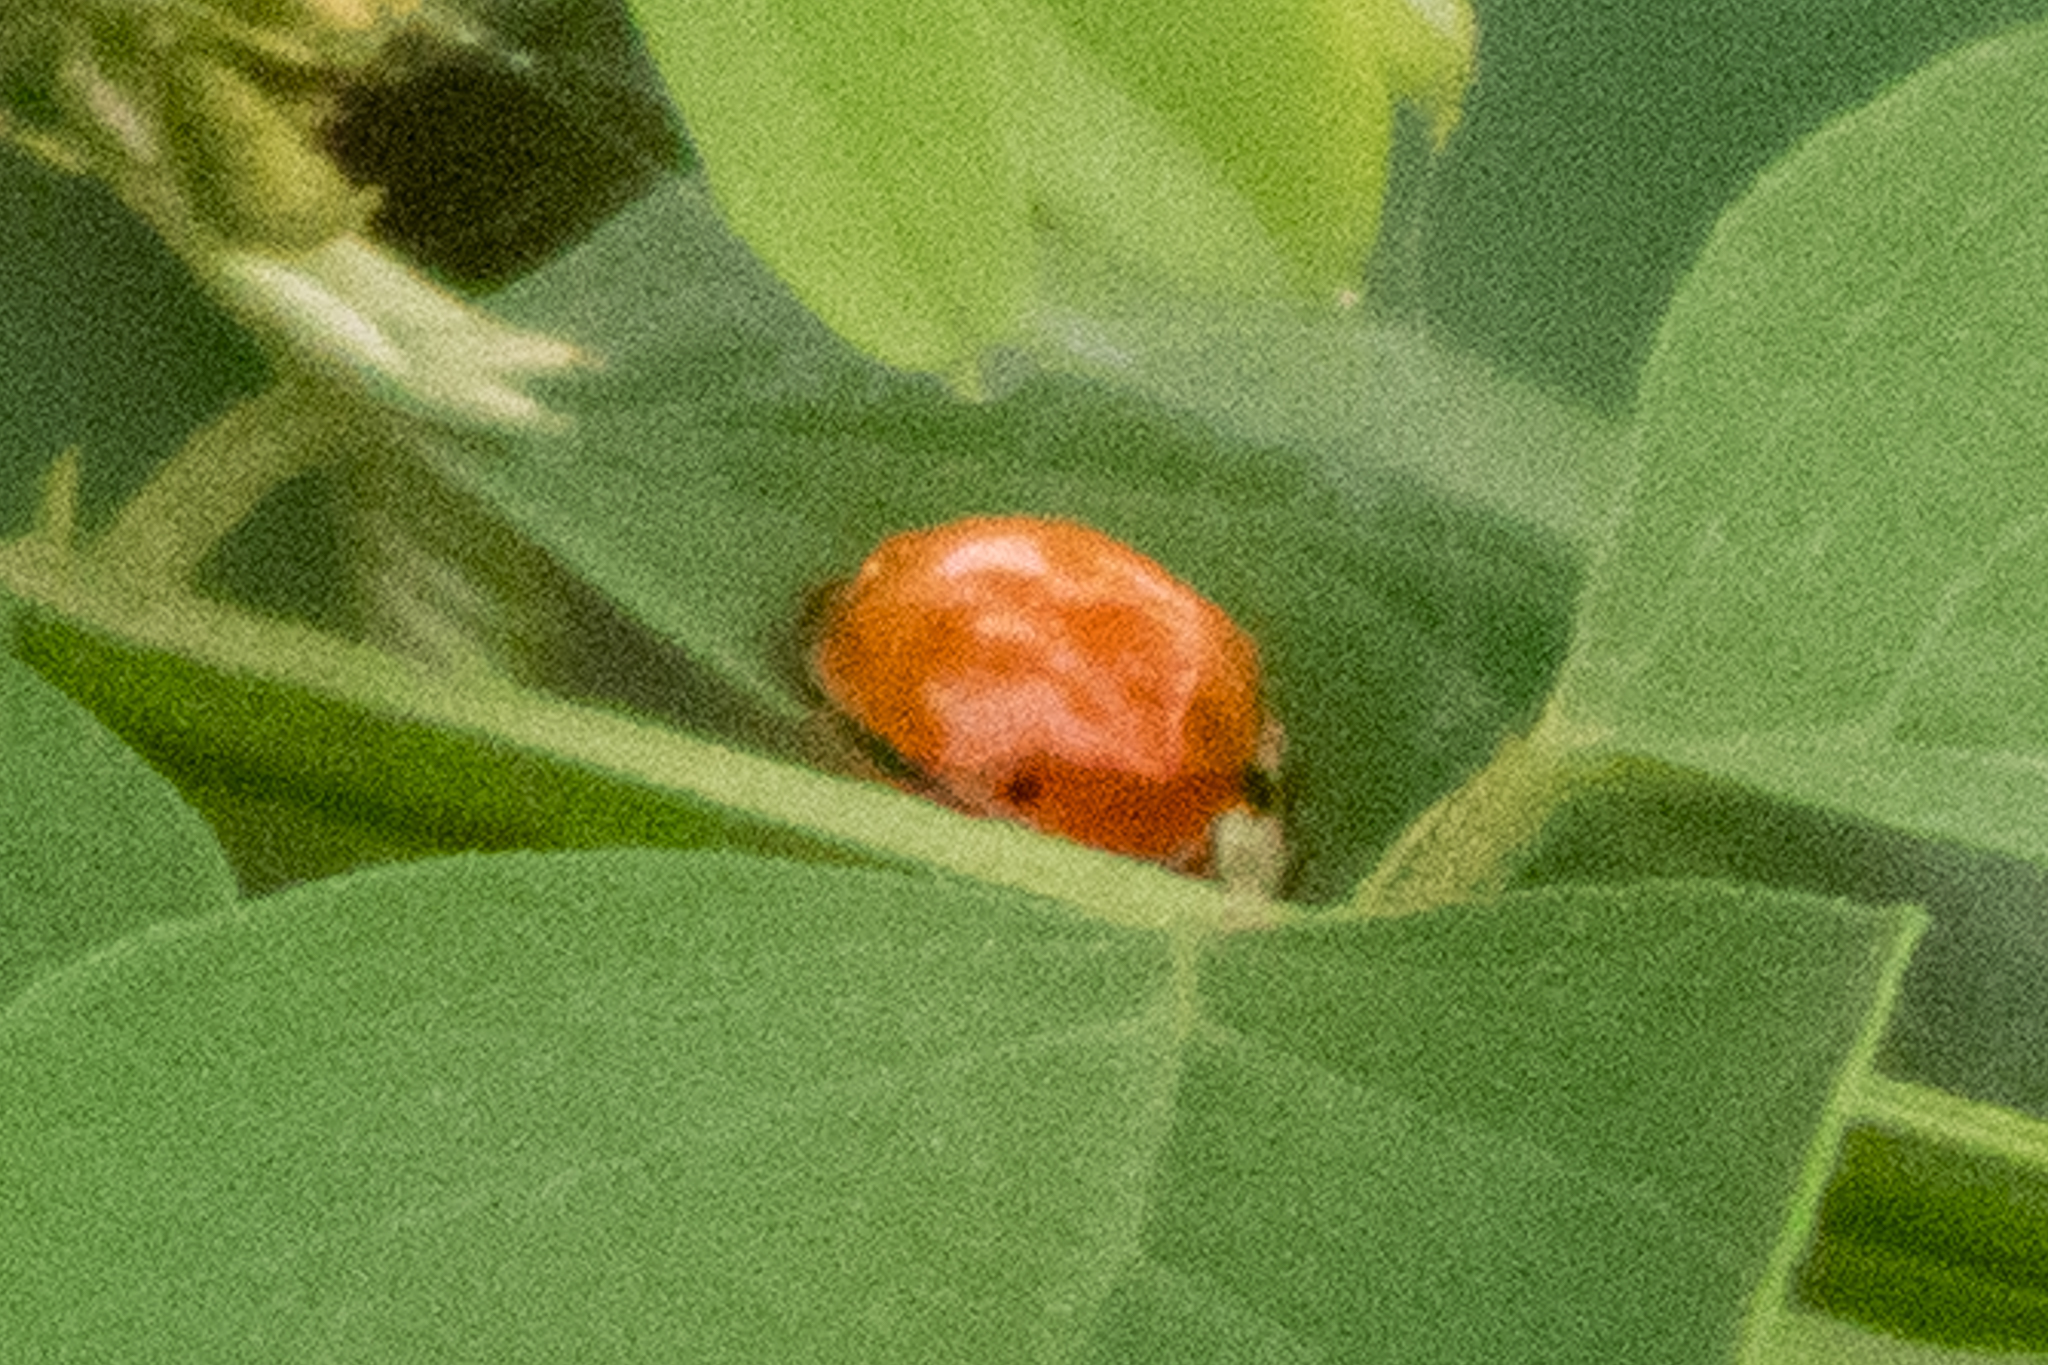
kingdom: Animalia
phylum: Arthropoda
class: Insecta
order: Coleoptera
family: Coccinellidae
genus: Harmonia
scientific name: Harmonia axyridis
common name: Harlequin ladybird
